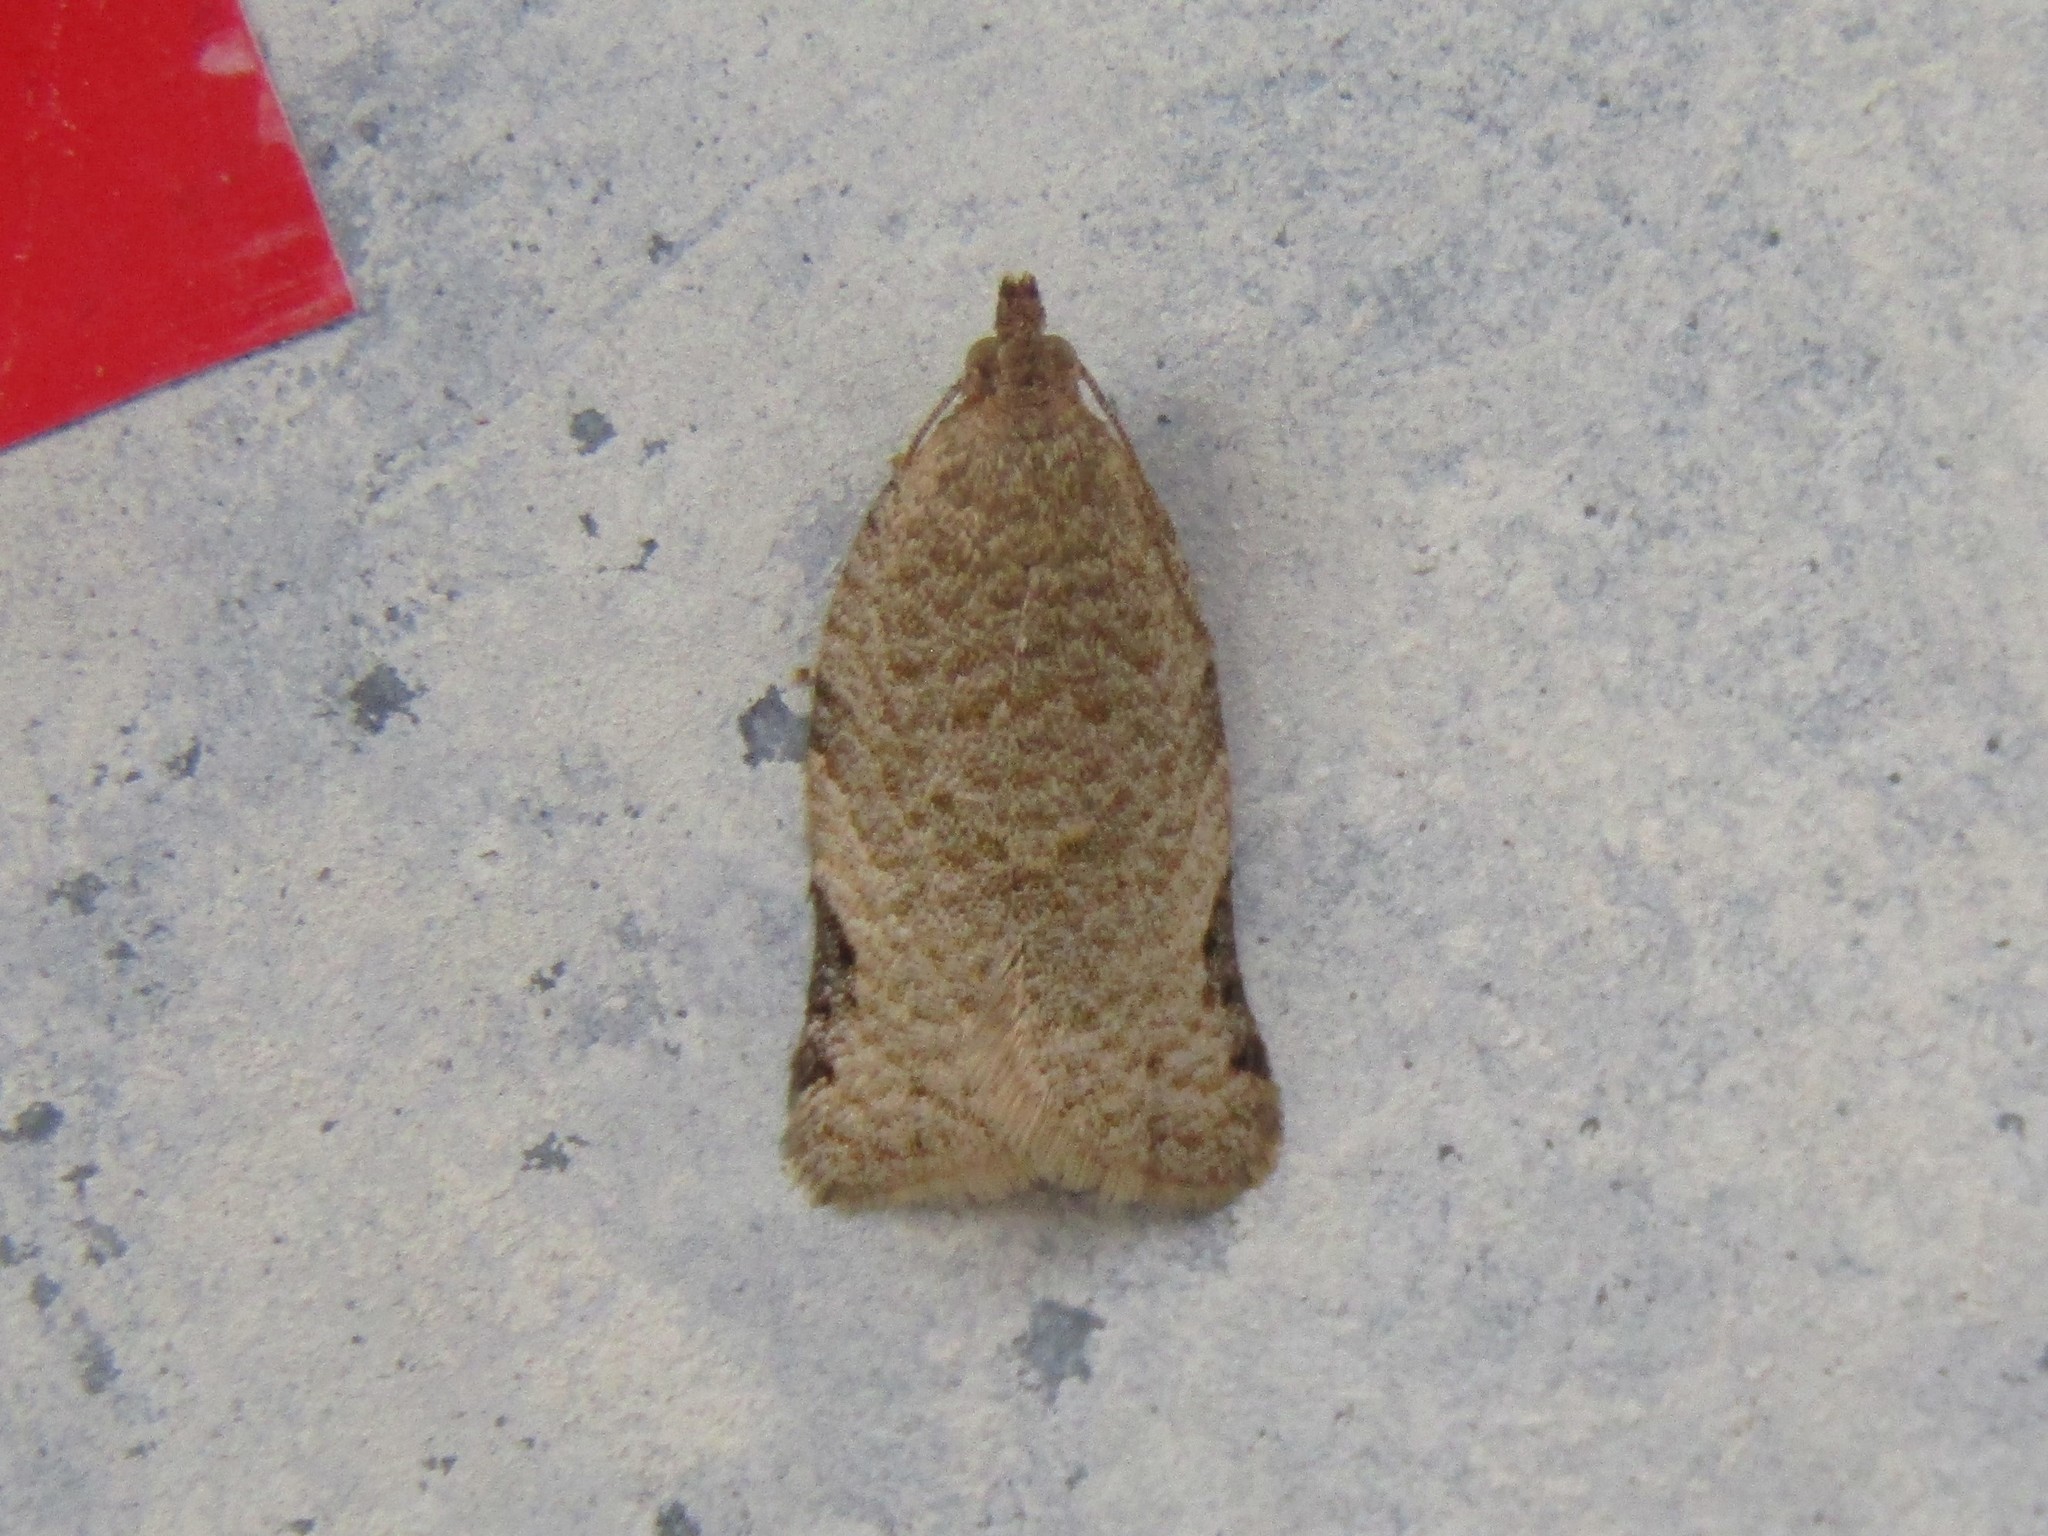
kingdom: Animalia
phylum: Arthropoda
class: Insecta
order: Lepidoptera
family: Tortricidae
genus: Clepsis
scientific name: Clepsis virescana
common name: Greenish apple moth
